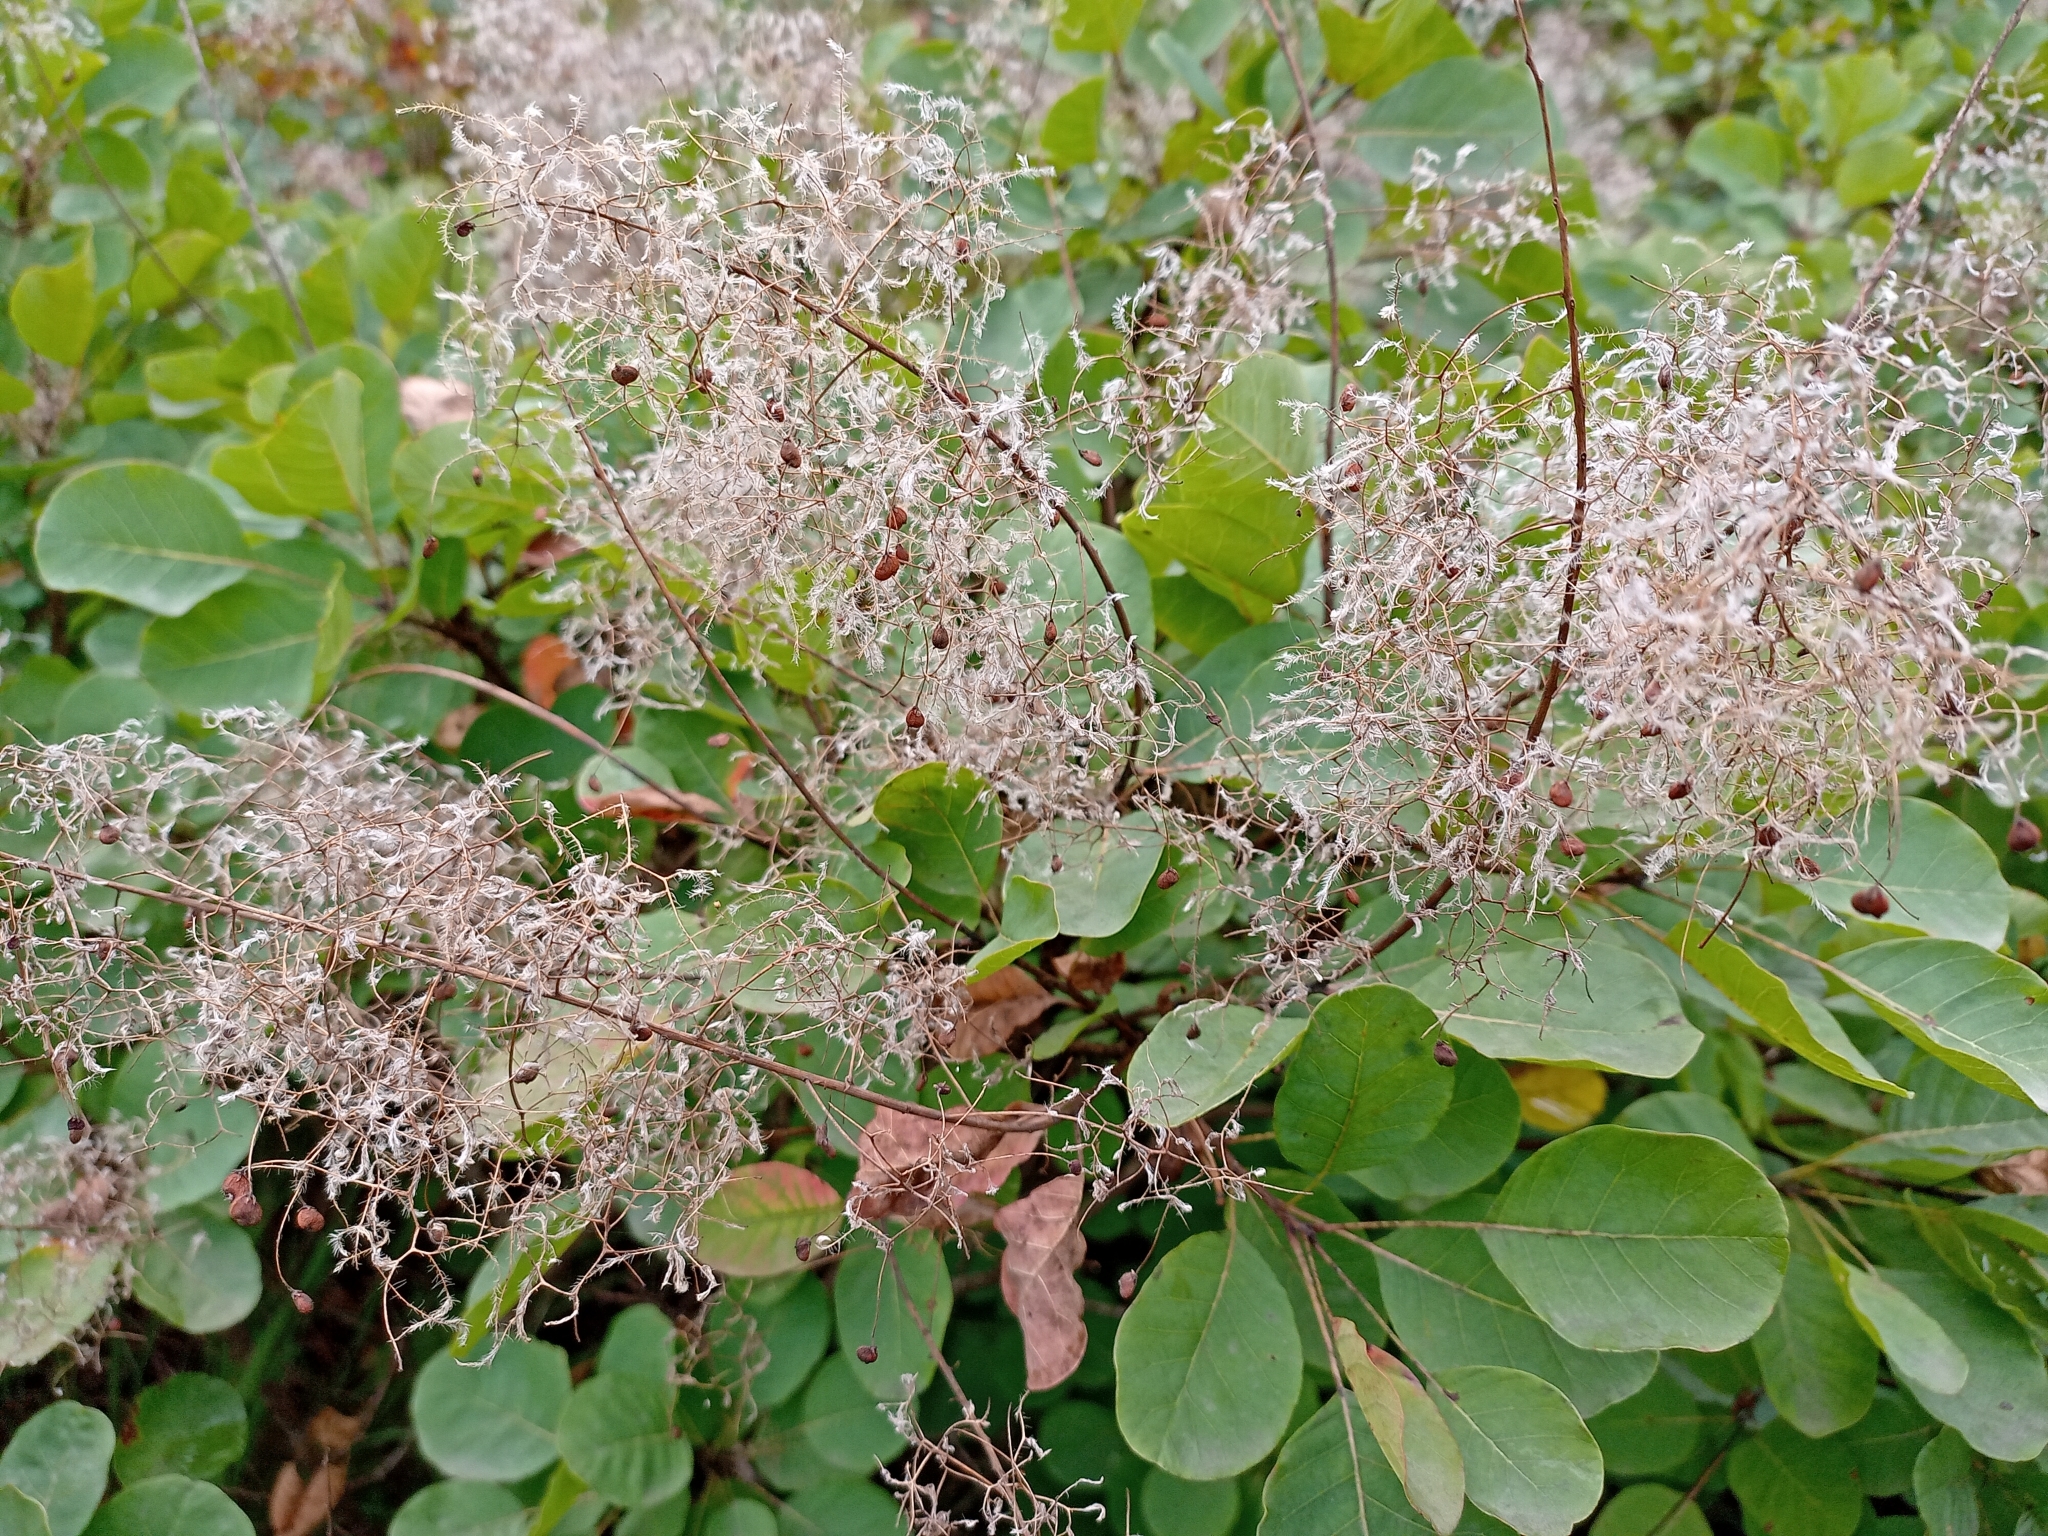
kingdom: Plantae
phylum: Tracheophyta
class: Magnoliopsida
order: Sapindales
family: Anacardiaceae
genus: Cotinus
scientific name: Cotinus coggygria
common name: Smoke-tree
